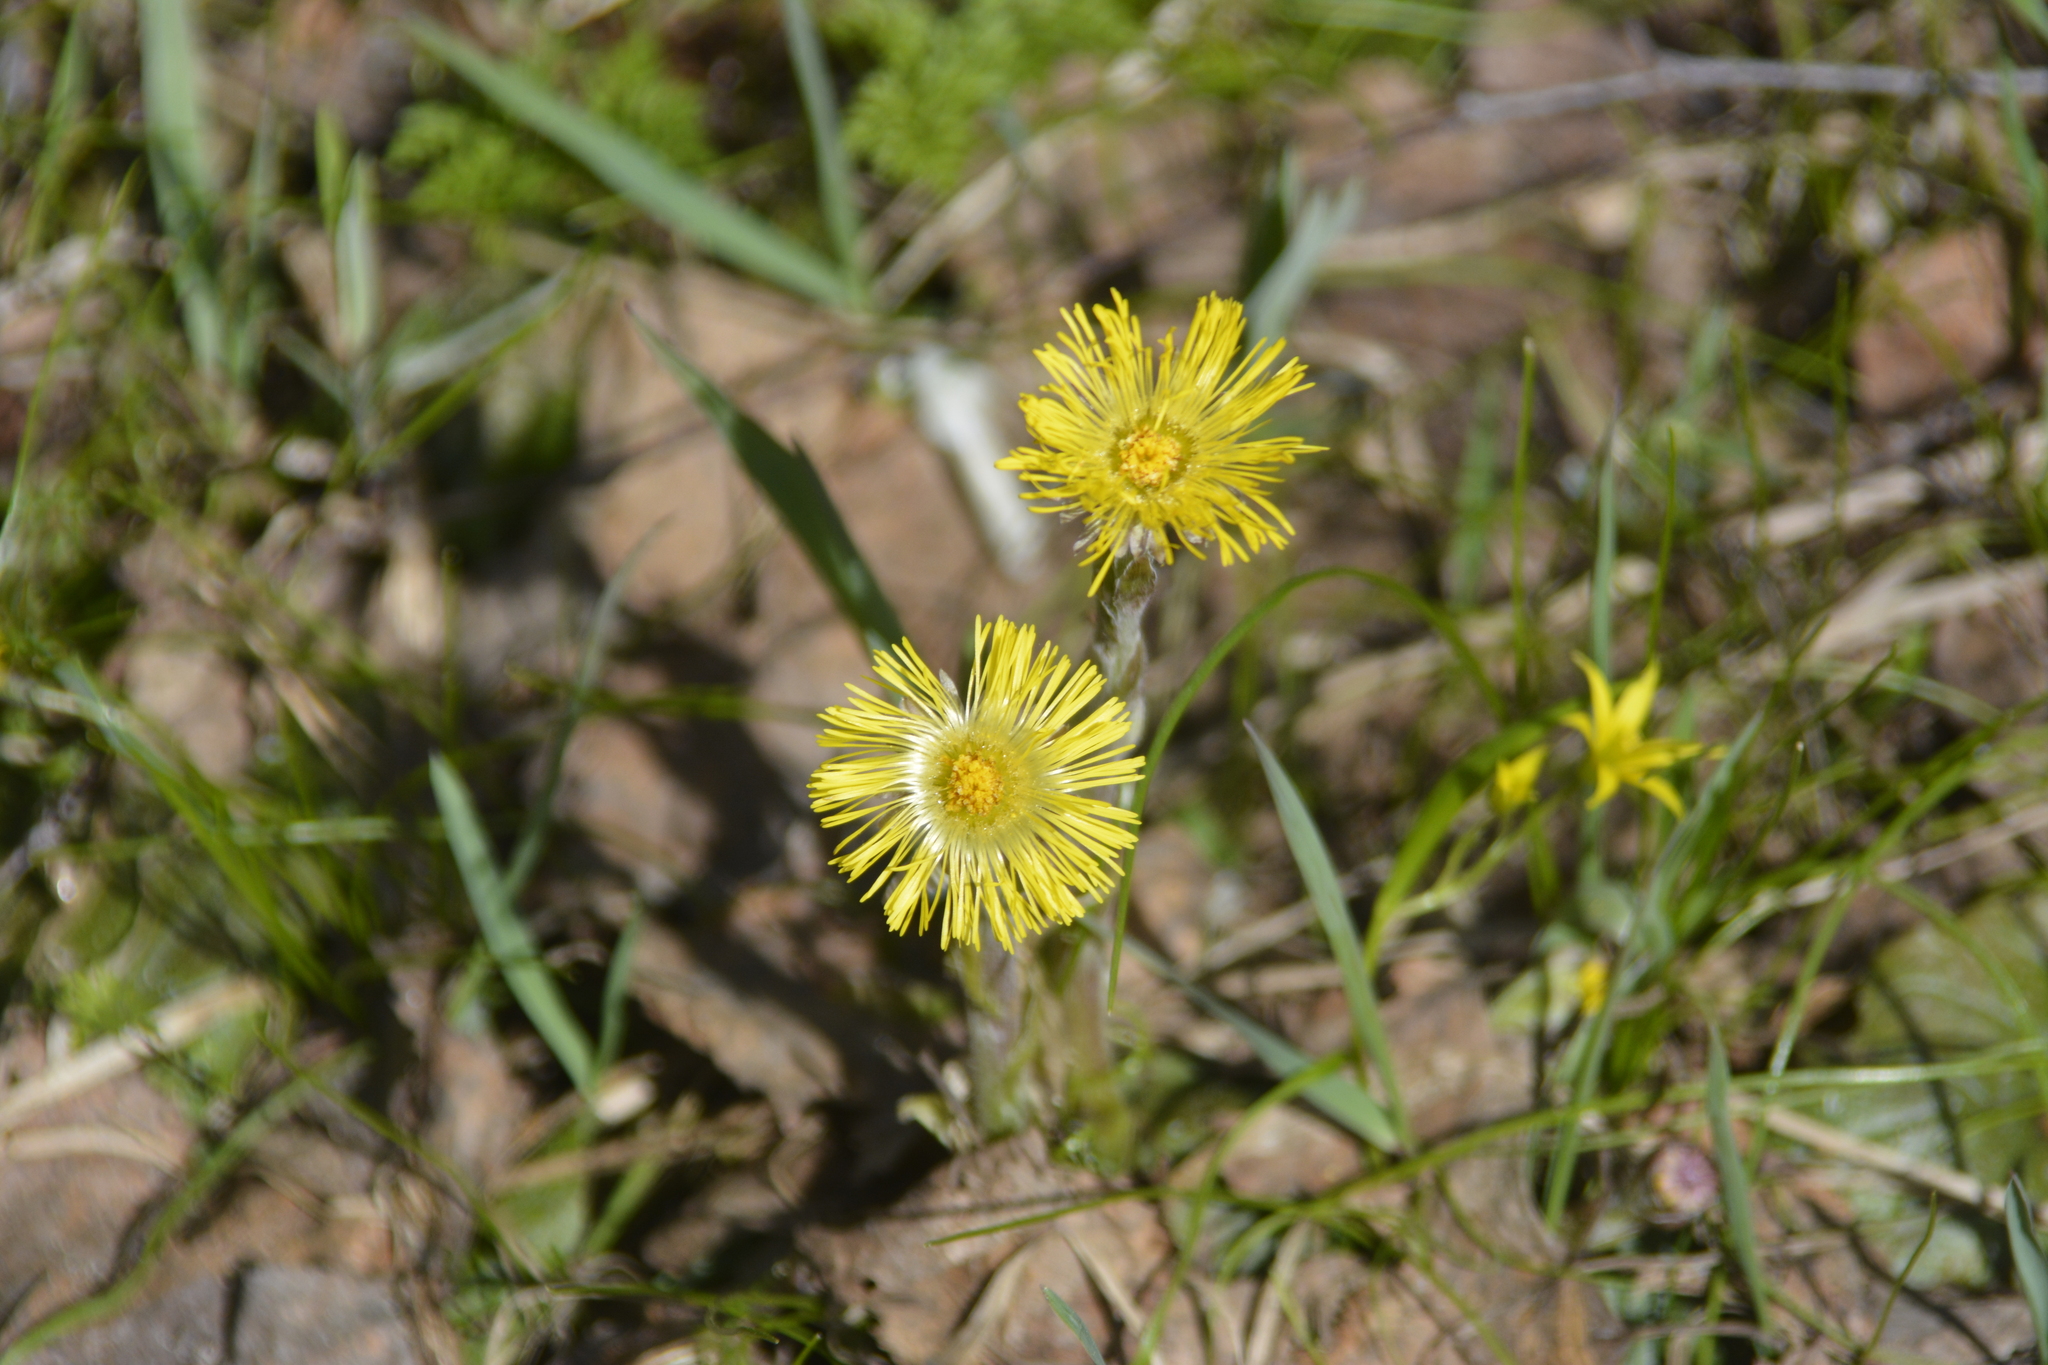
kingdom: Plantae
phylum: Tracheophyta
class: Magnoliopsida
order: Asterales
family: Asteraceae
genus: Tussilago
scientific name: Tussilago farfara
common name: Coltsfoot
